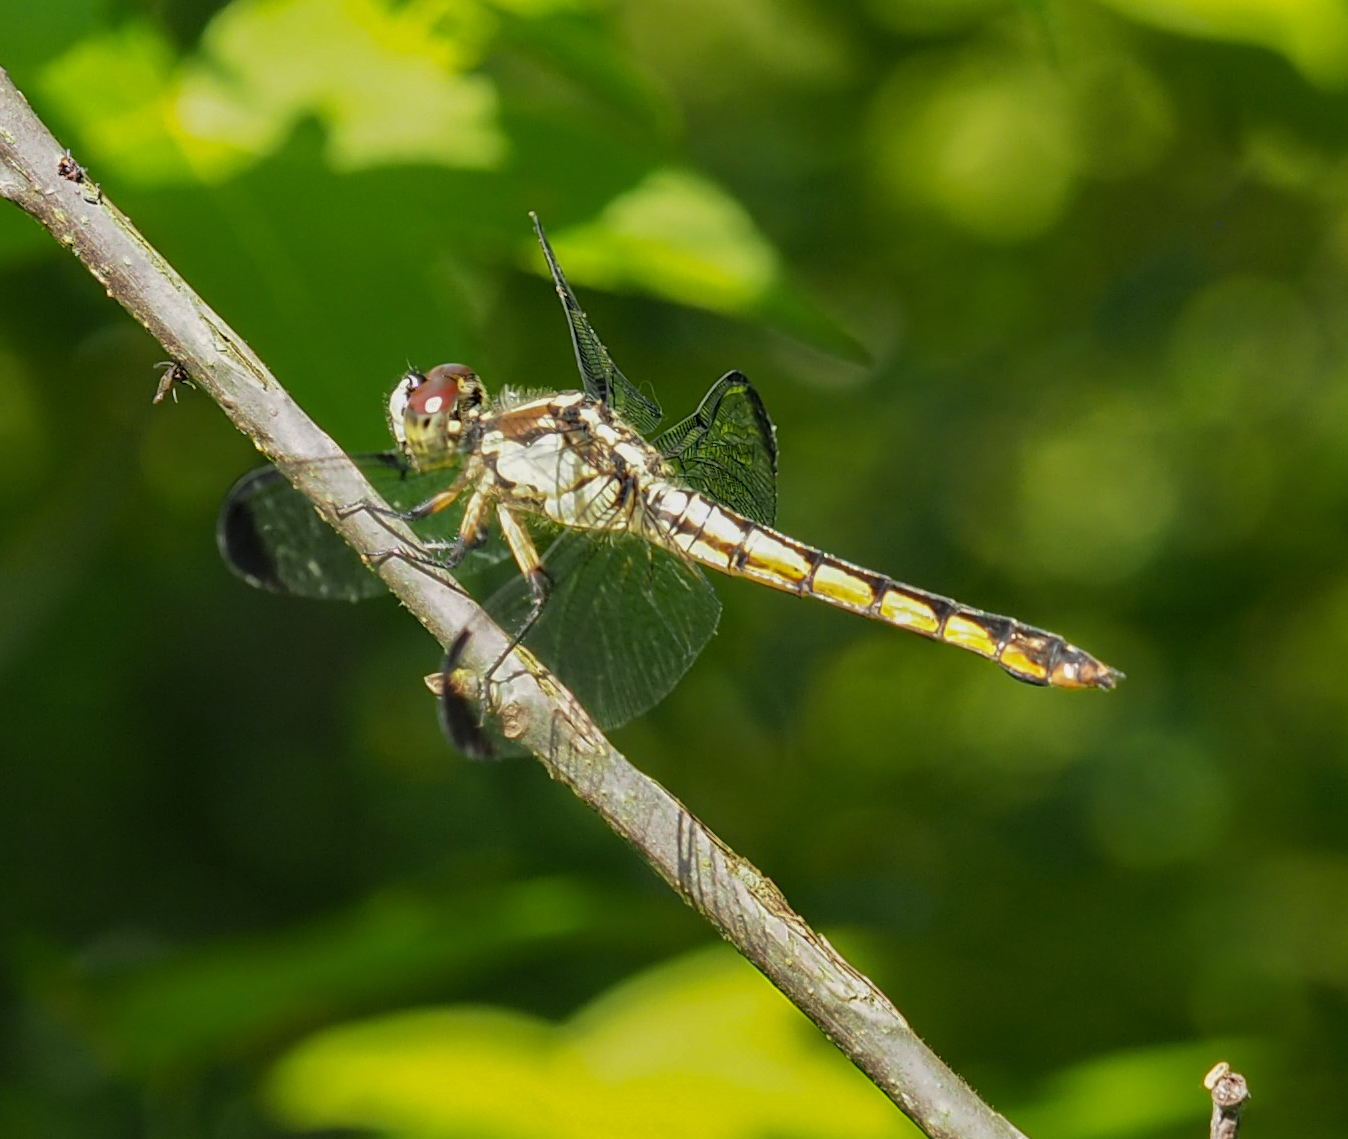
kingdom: Animalia
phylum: Arthropoda
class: Insecta
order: Odonata
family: Libellulidae
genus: Libellula
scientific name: Libellula vibrans
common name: Great blue skimmer
